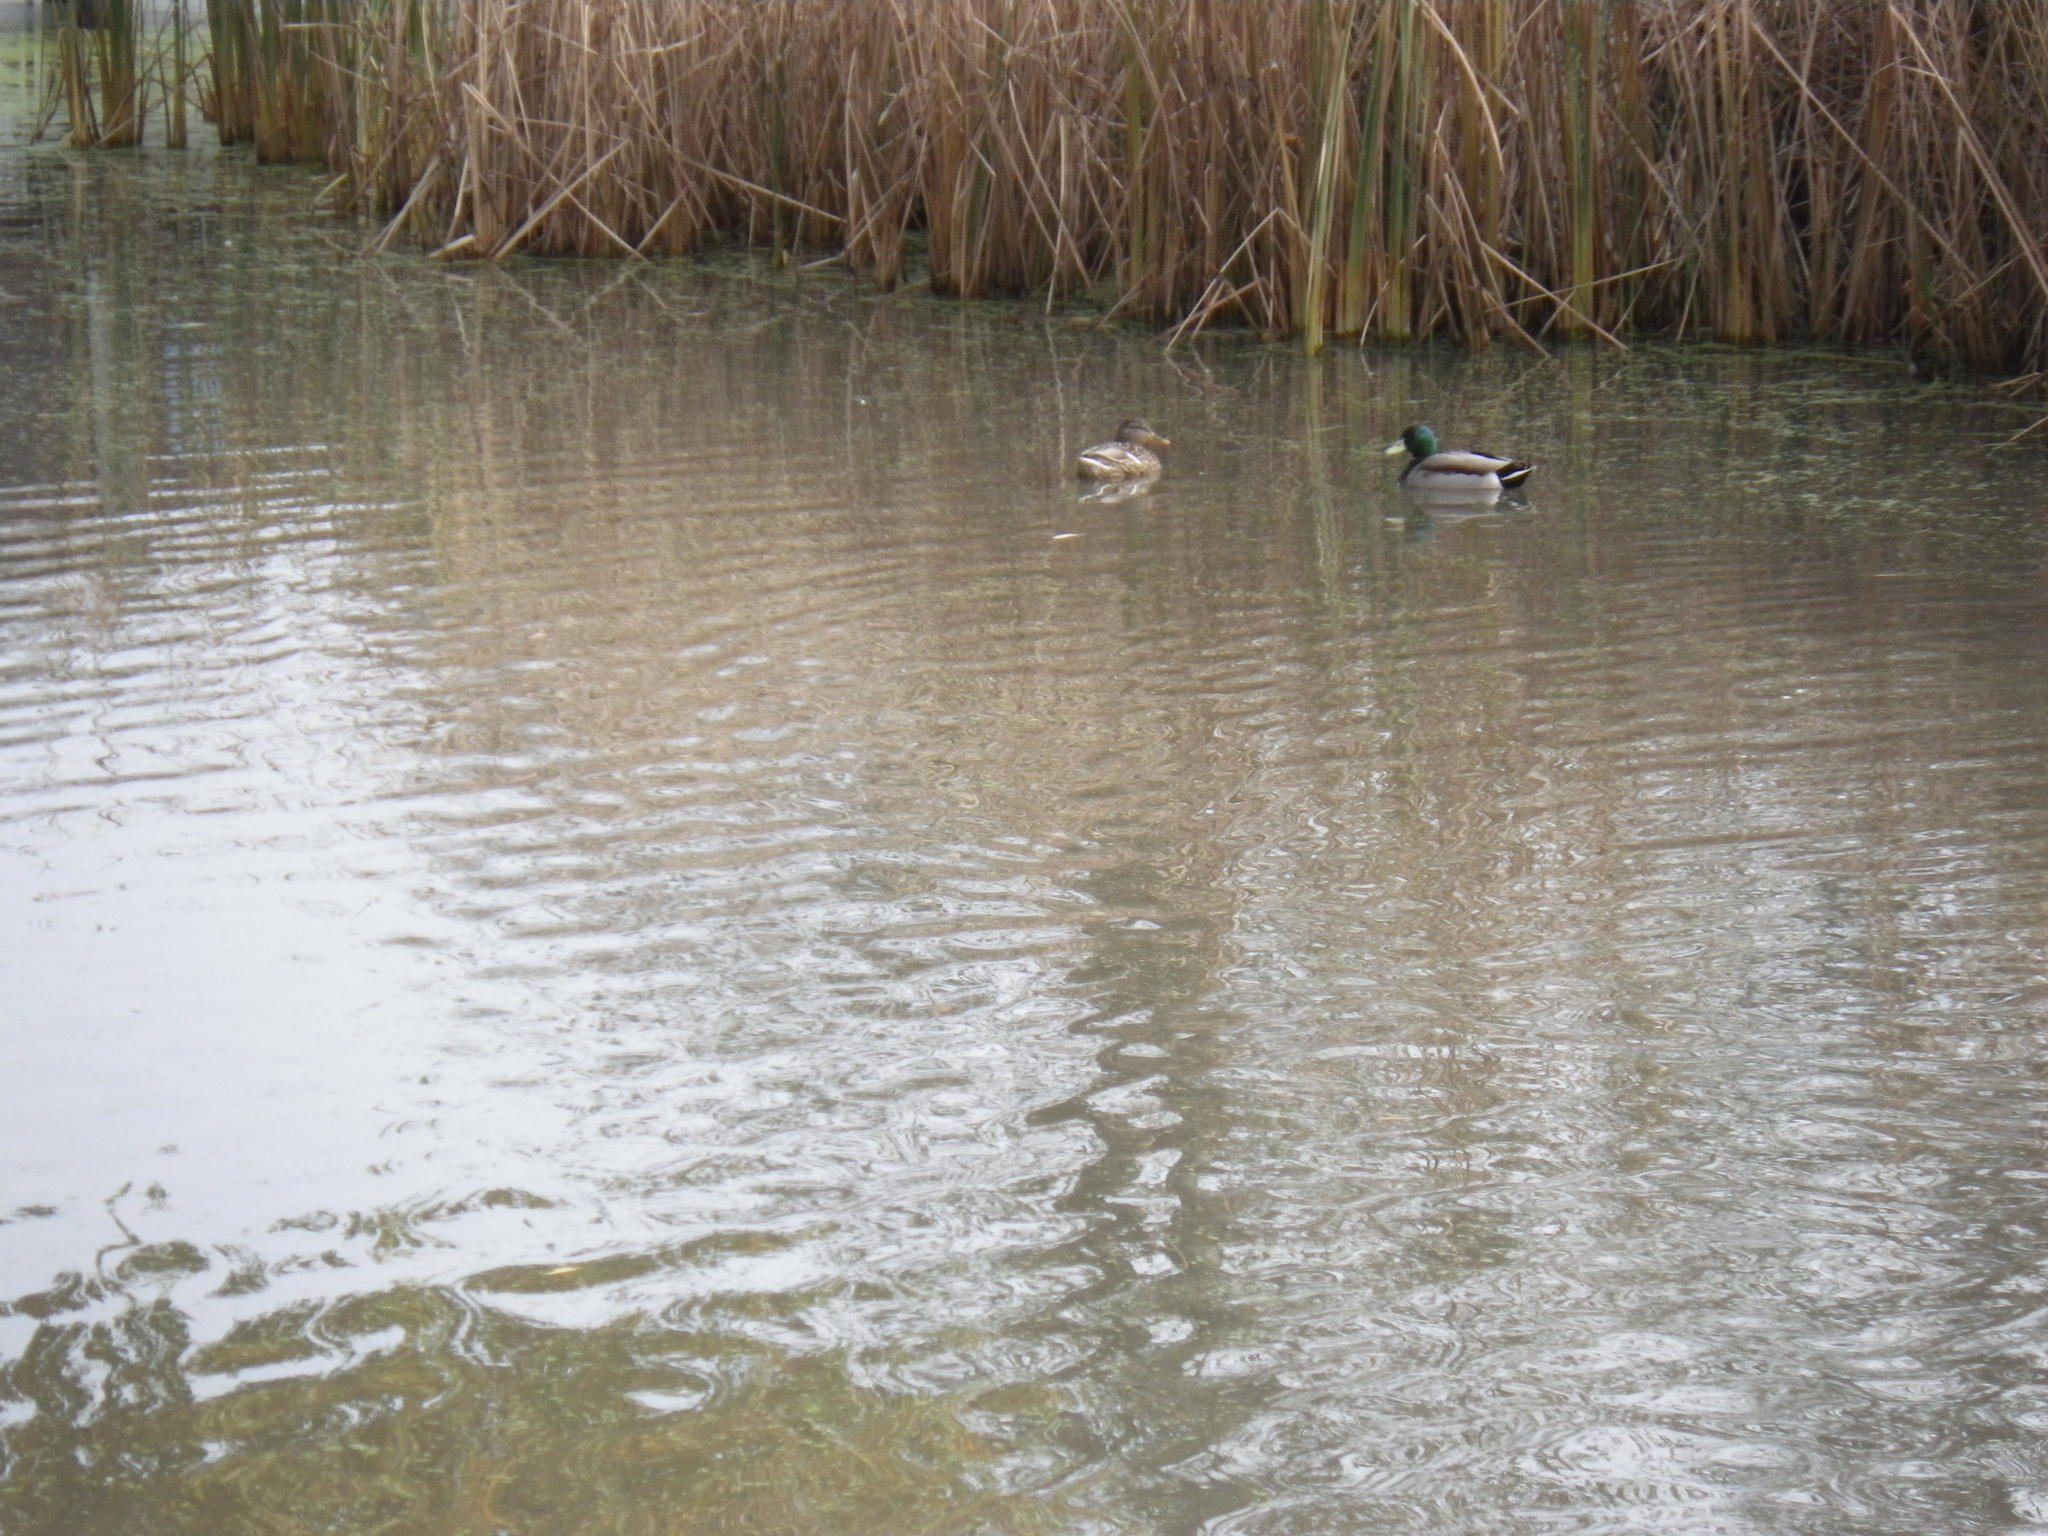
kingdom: Animalia
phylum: Chordata
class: Aves
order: Anseriformes
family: Anatidae
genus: Mareca
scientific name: Mareca americana
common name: American wigeon
